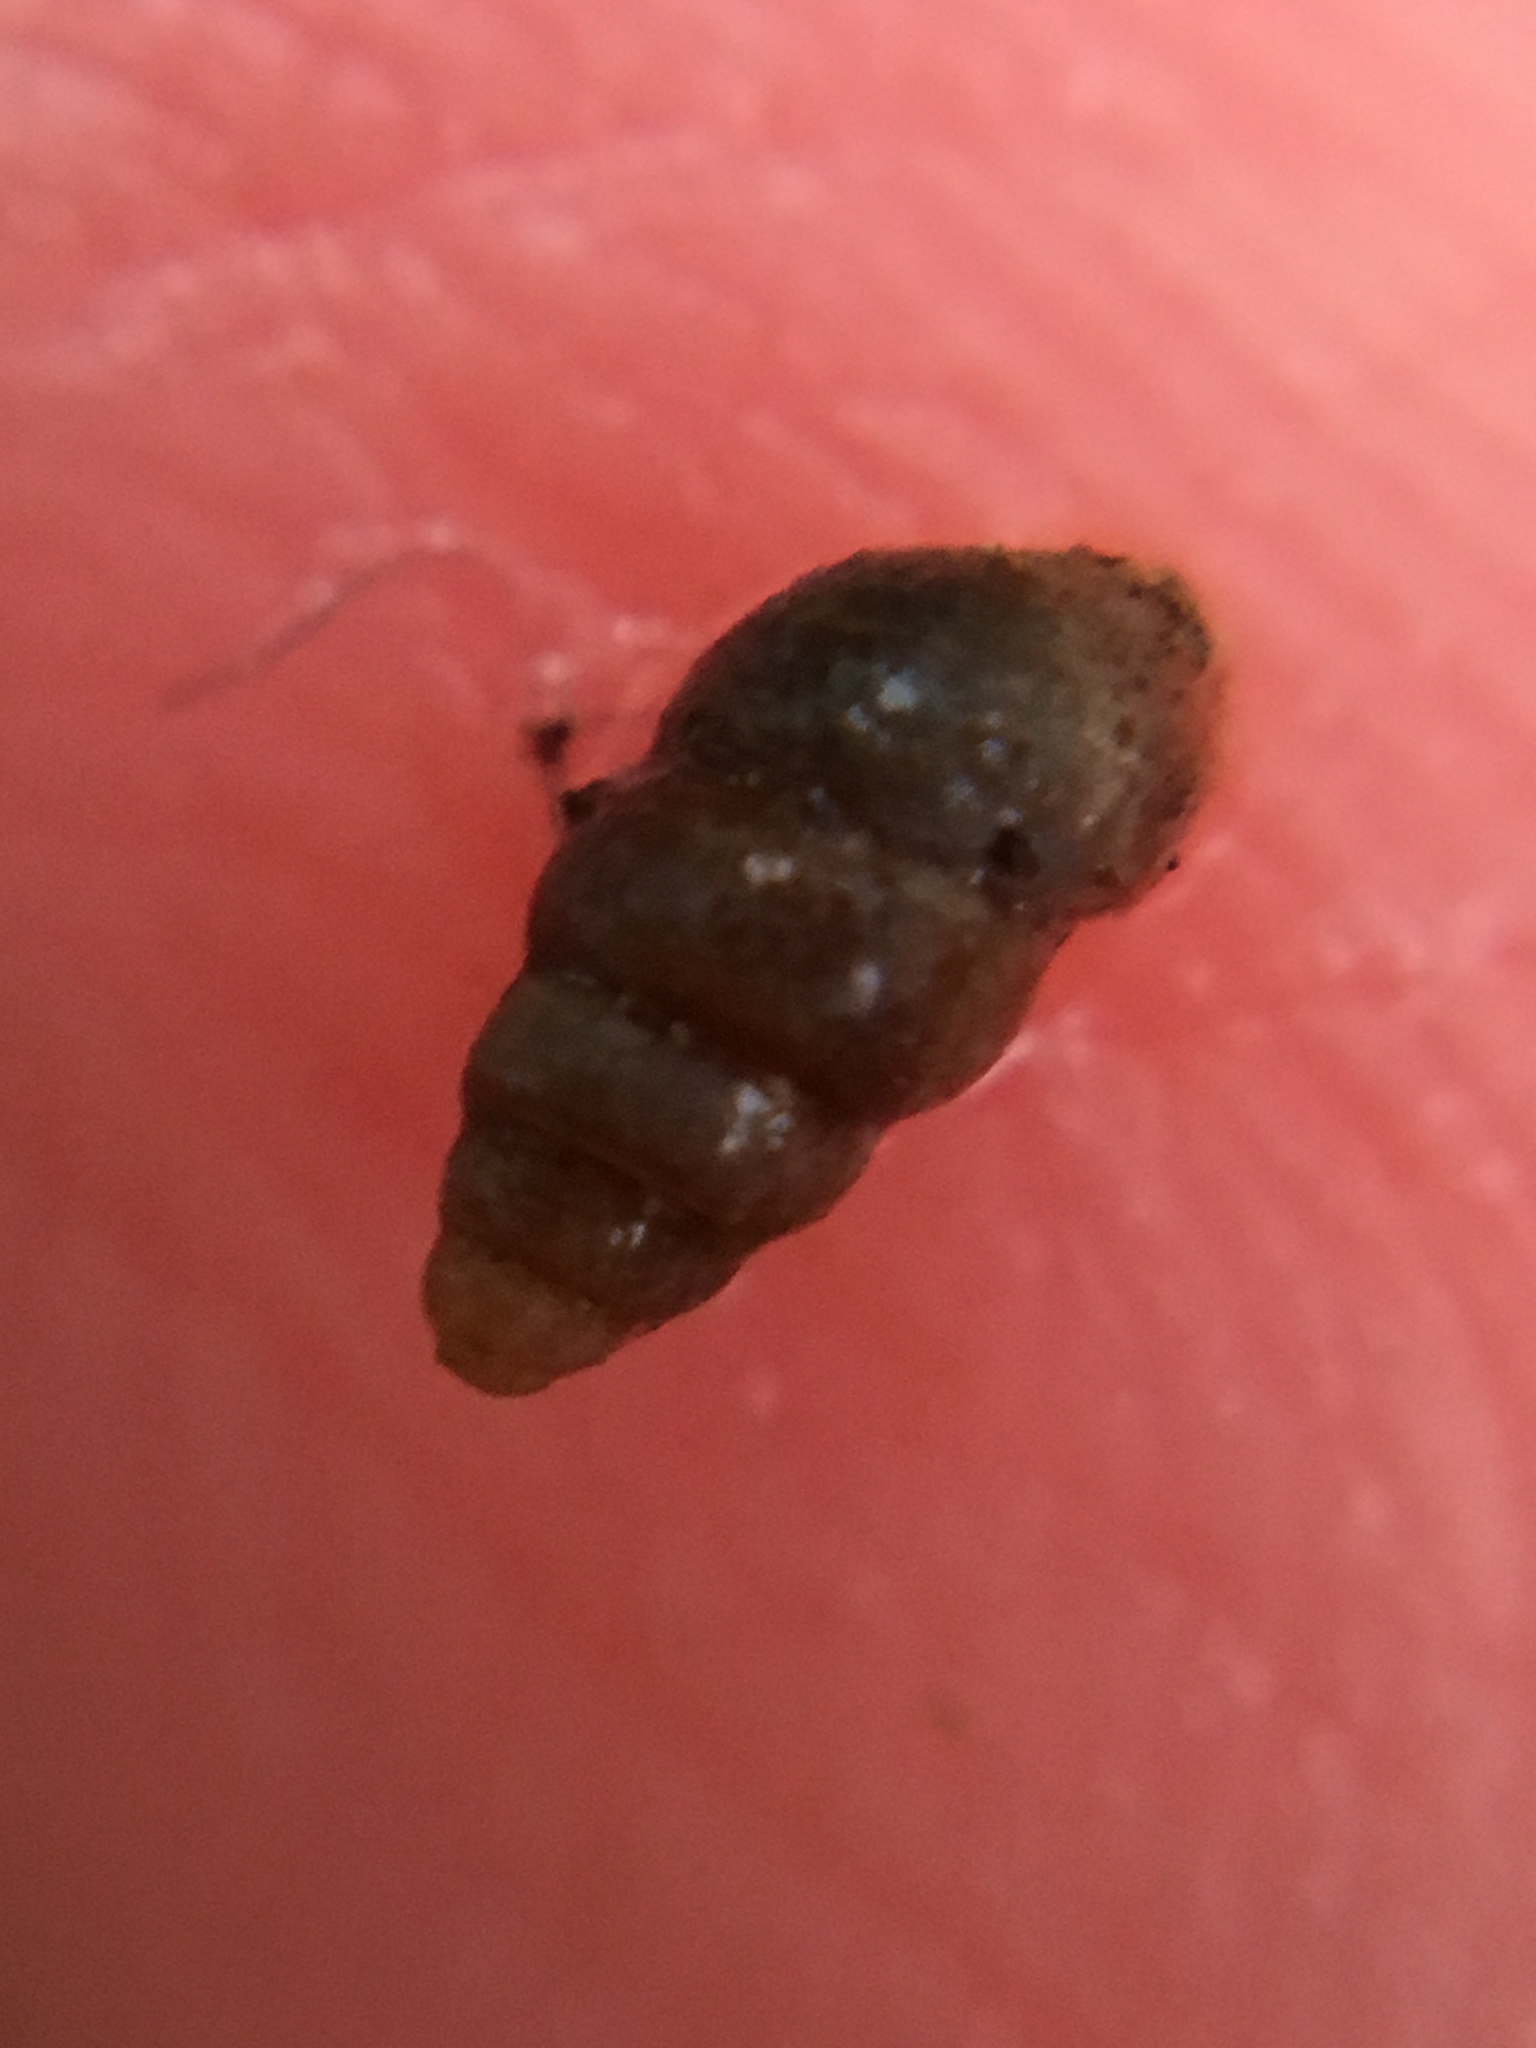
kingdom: Animalia
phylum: Mollusca
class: Gastropoda
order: Stylommatophora
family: Pupillidae
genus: Pupoides
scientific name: Pupoides nitidulus
